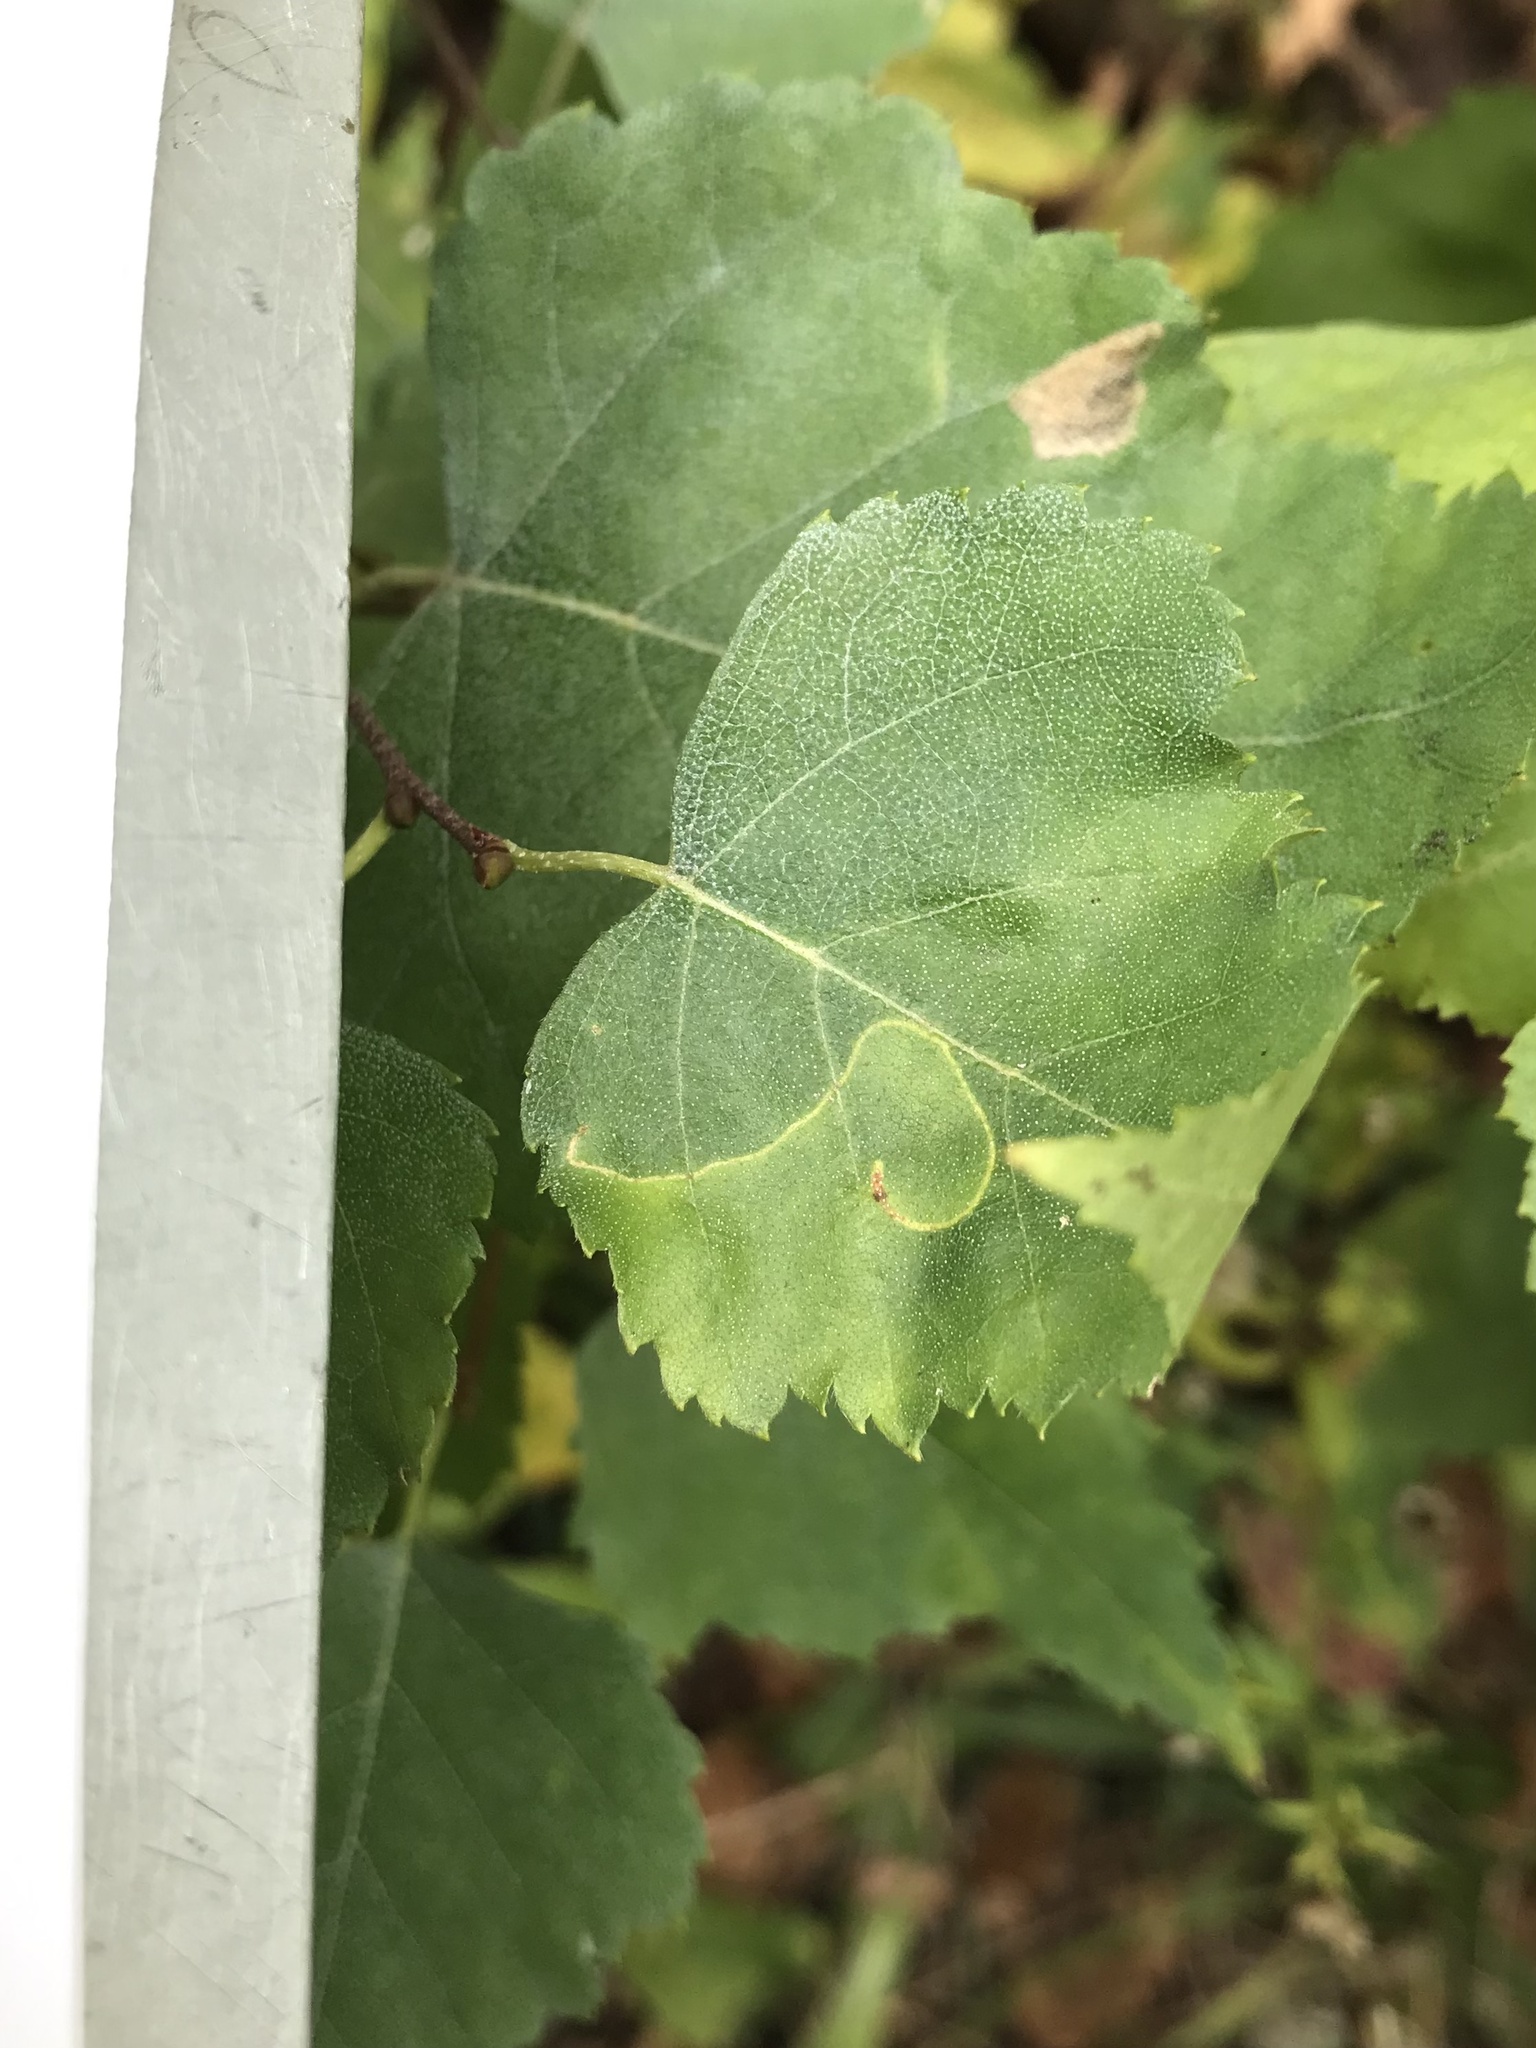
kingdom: Animalia
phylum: Arthropoda
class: Insecta
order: Lepidoptera
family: Lyonetiidae
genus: Lyonetia
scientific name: Lyonetia prunifoliella
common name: Striped bent-wing
